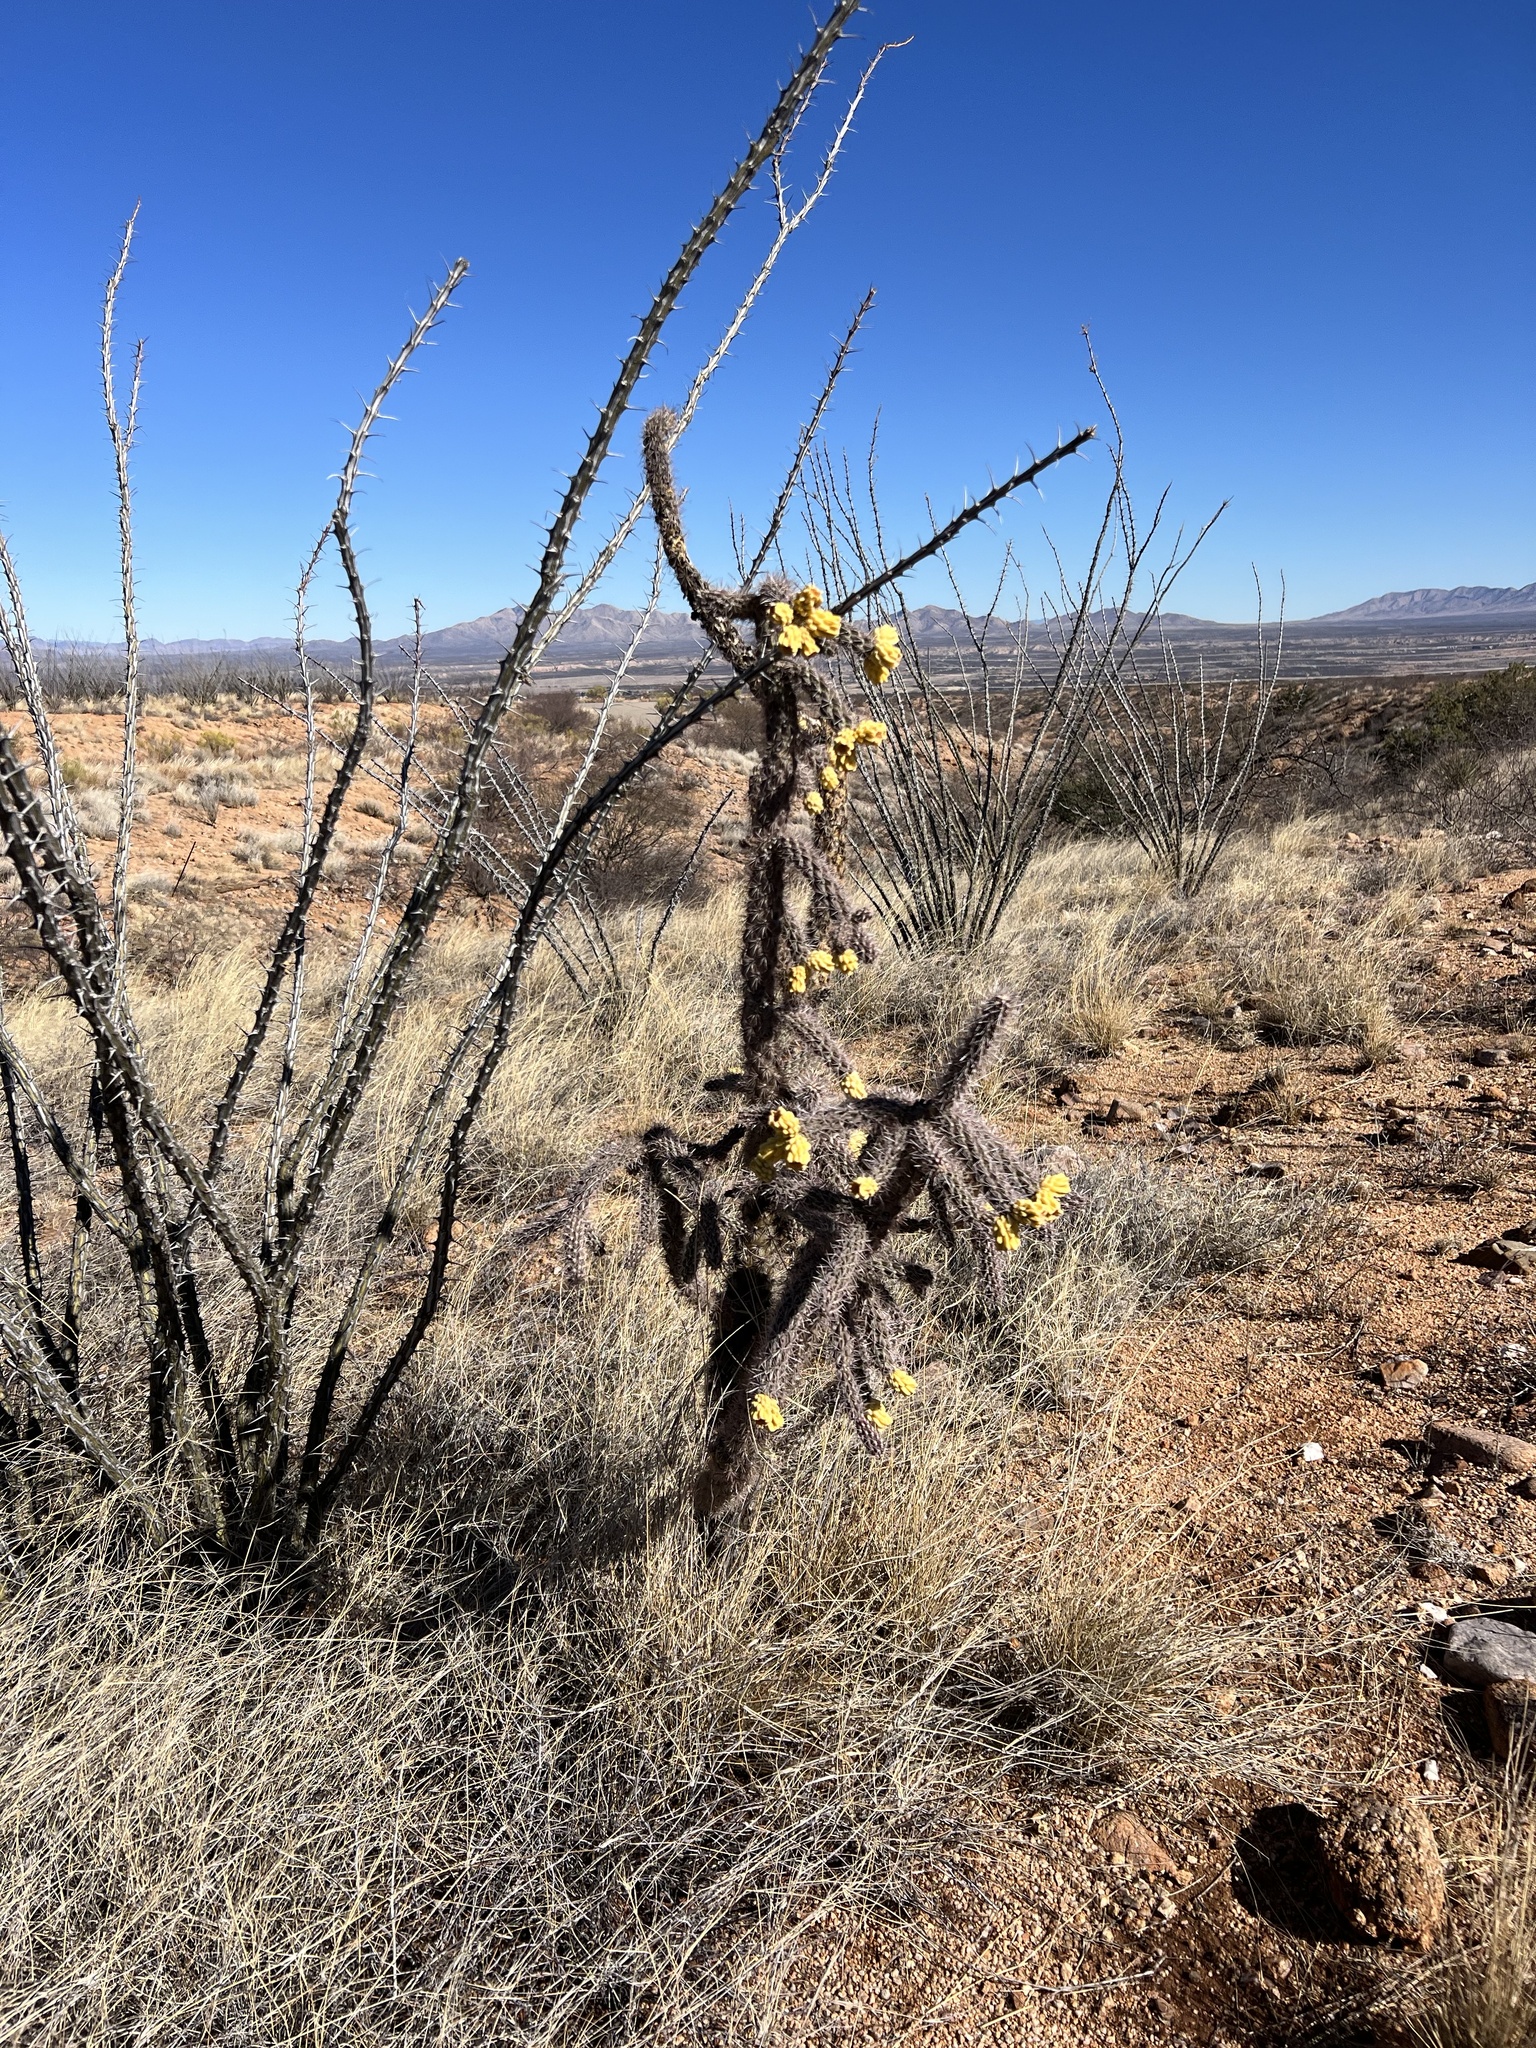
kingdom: Plantae
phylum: Tracheophyta
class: Magnoliopsida
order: Caryophyllales
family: Cactaceae
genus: Cylindropuntia
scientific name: Cylindropuntia imbricata
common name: Candelabrum cactus
